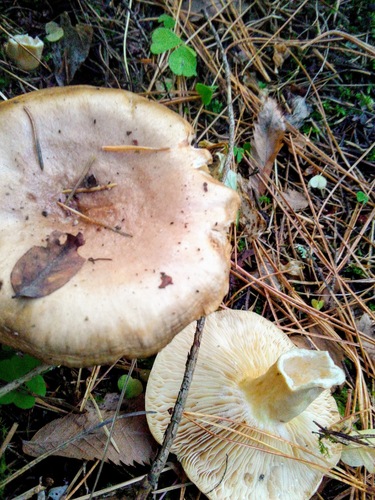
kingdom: Fungi
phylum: Basidiomycota
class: Agaricomycetes
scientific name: Agaricomycetes
